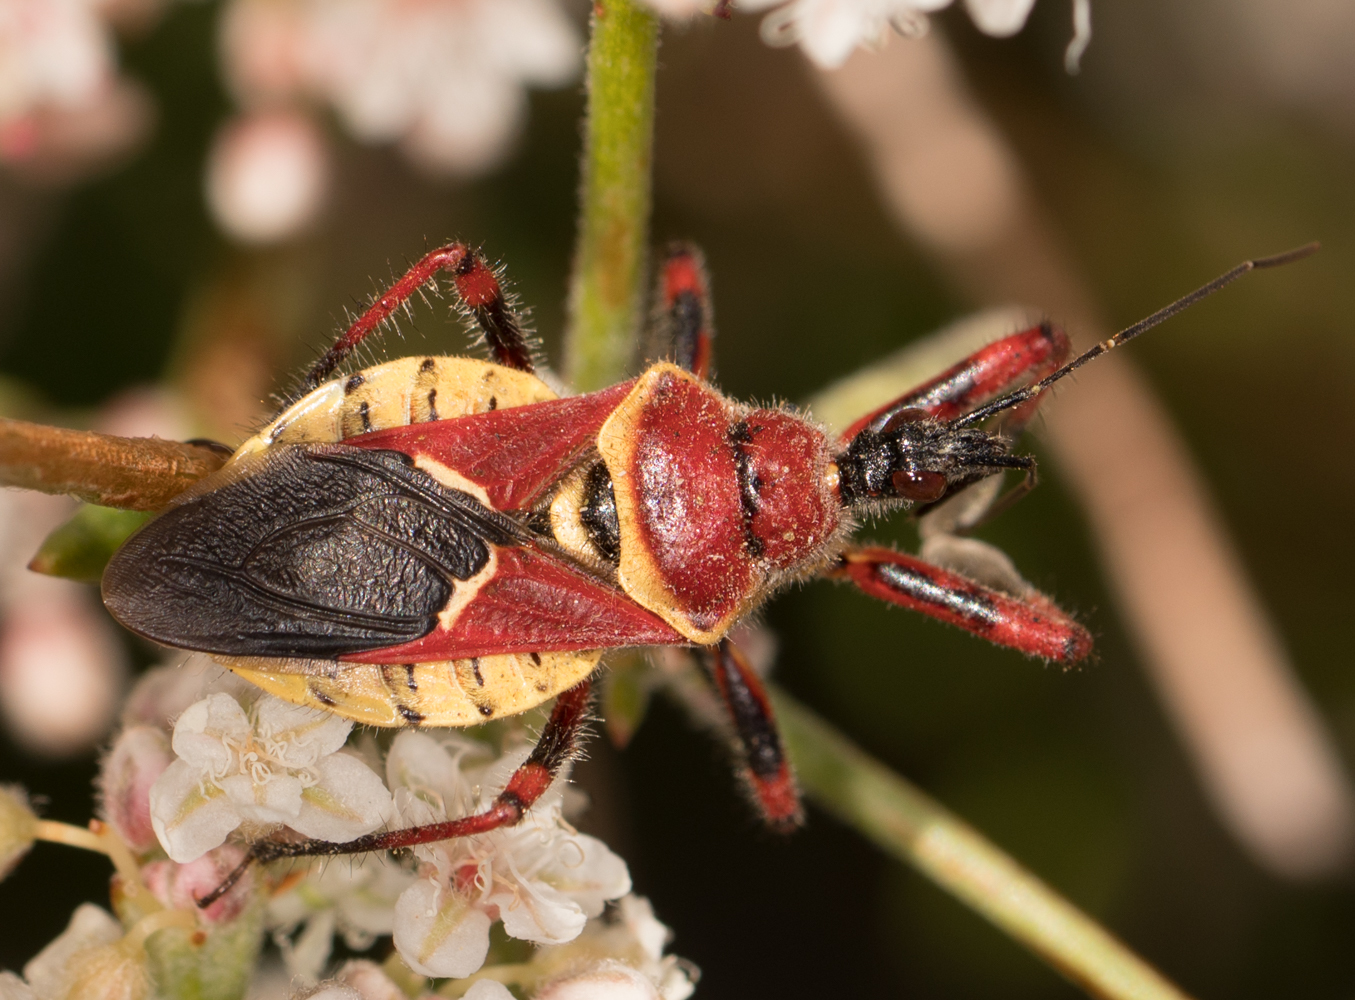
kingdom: Animalia
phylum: Arthropoda
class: Insecta
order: Hemiptera
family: Reduviidae
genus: Apiomerus
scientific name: Apiomerus flaviventris
